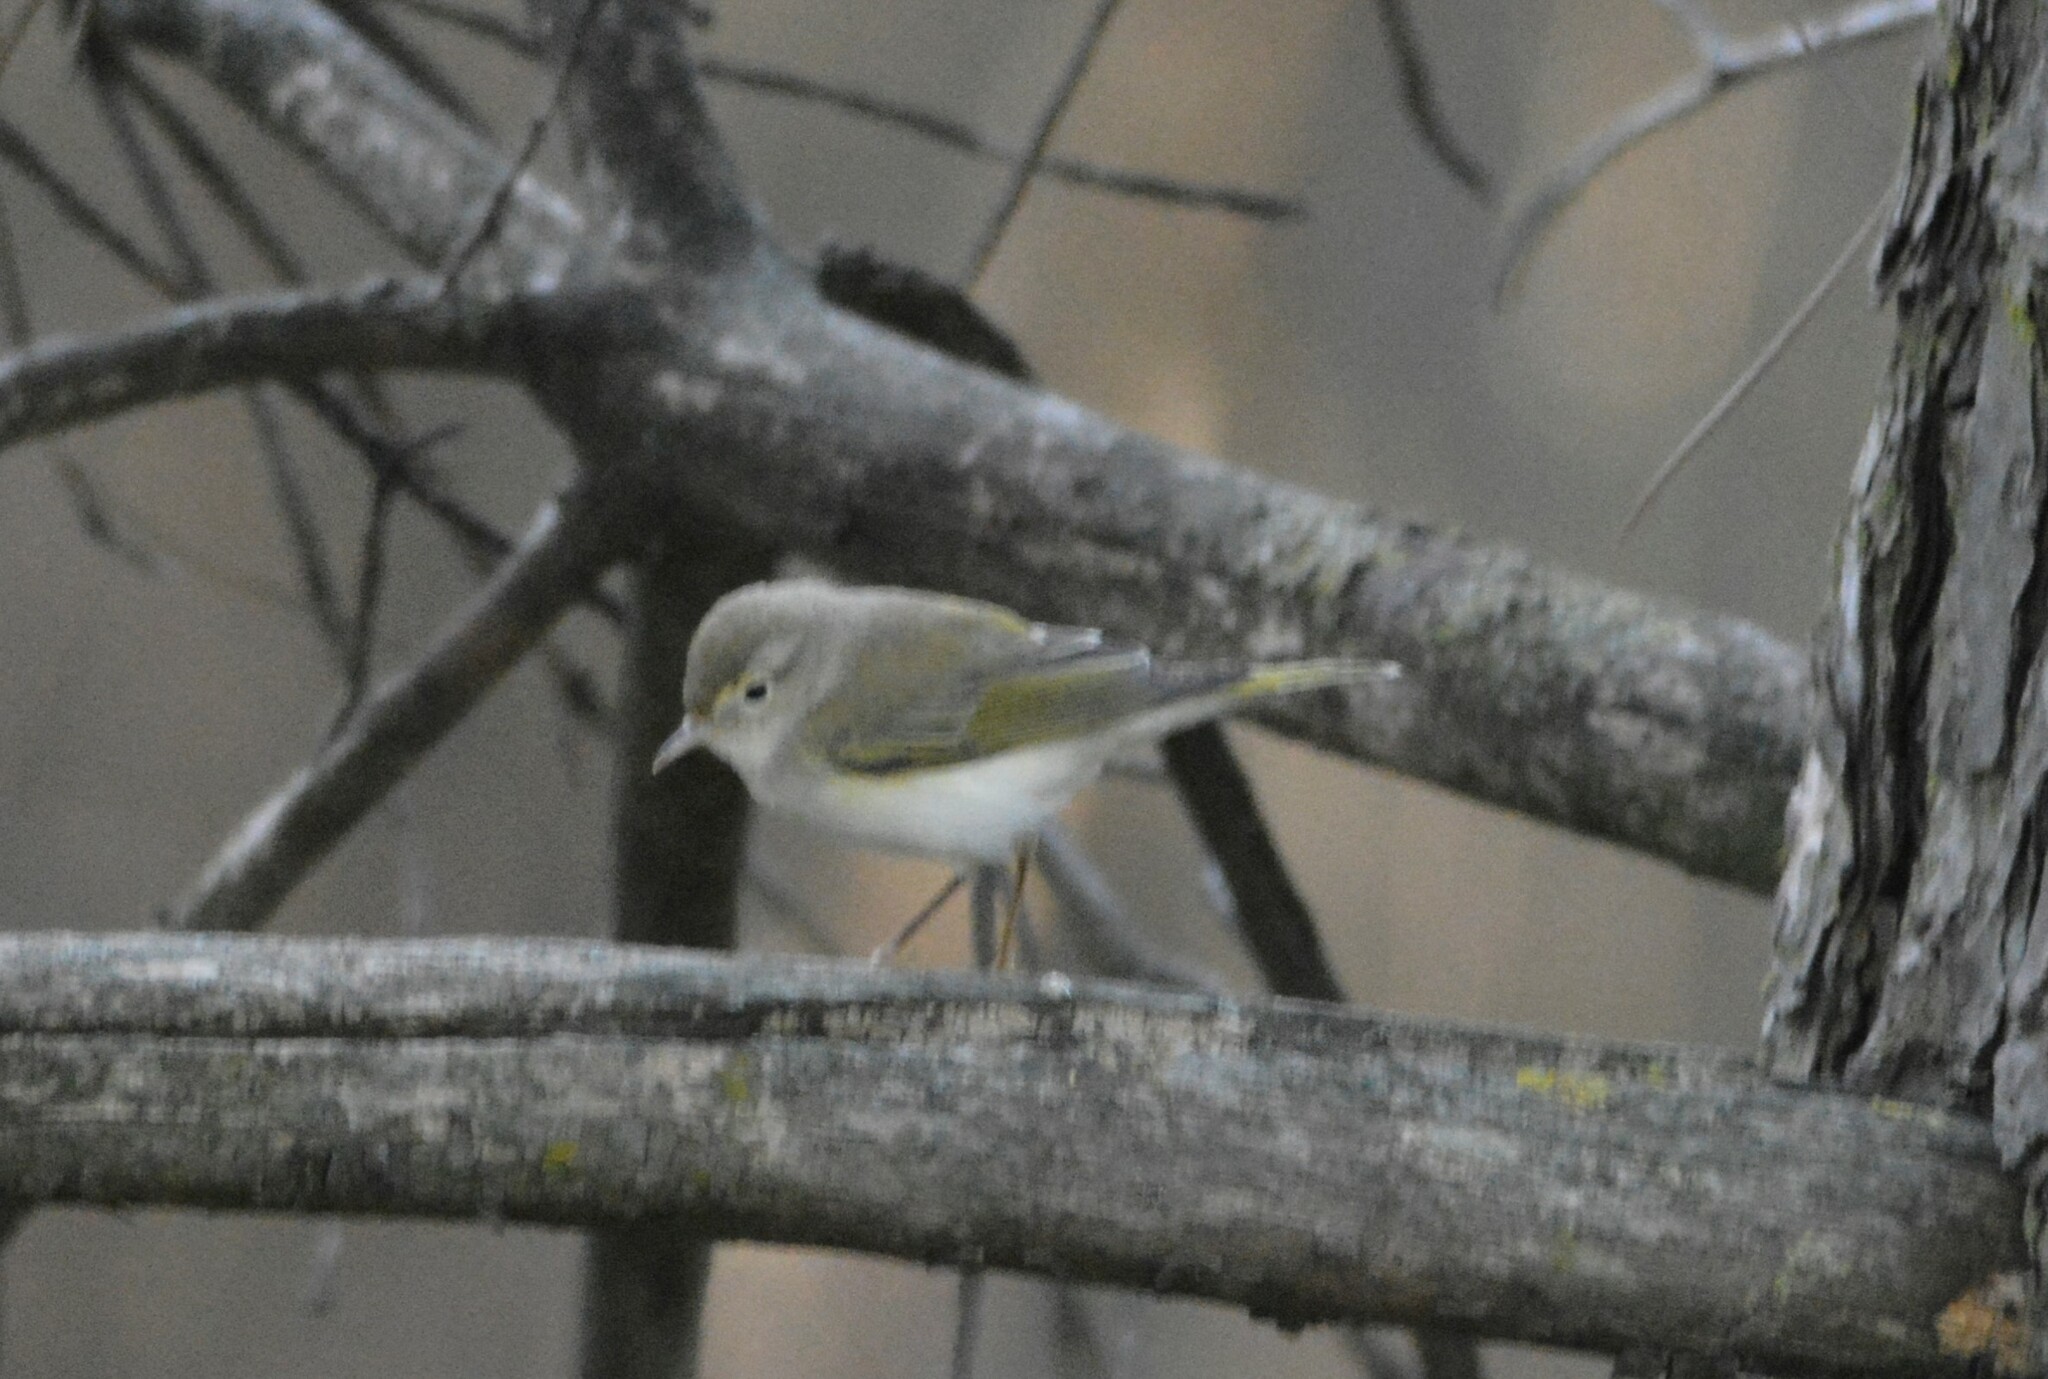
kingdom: Animalia
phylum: Chordata
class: Aves
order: Passeriformes
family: Phylloscopidae
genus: Phylloscopus
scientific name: Phylloscopus bonelli
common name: Western bonelli's warbler
